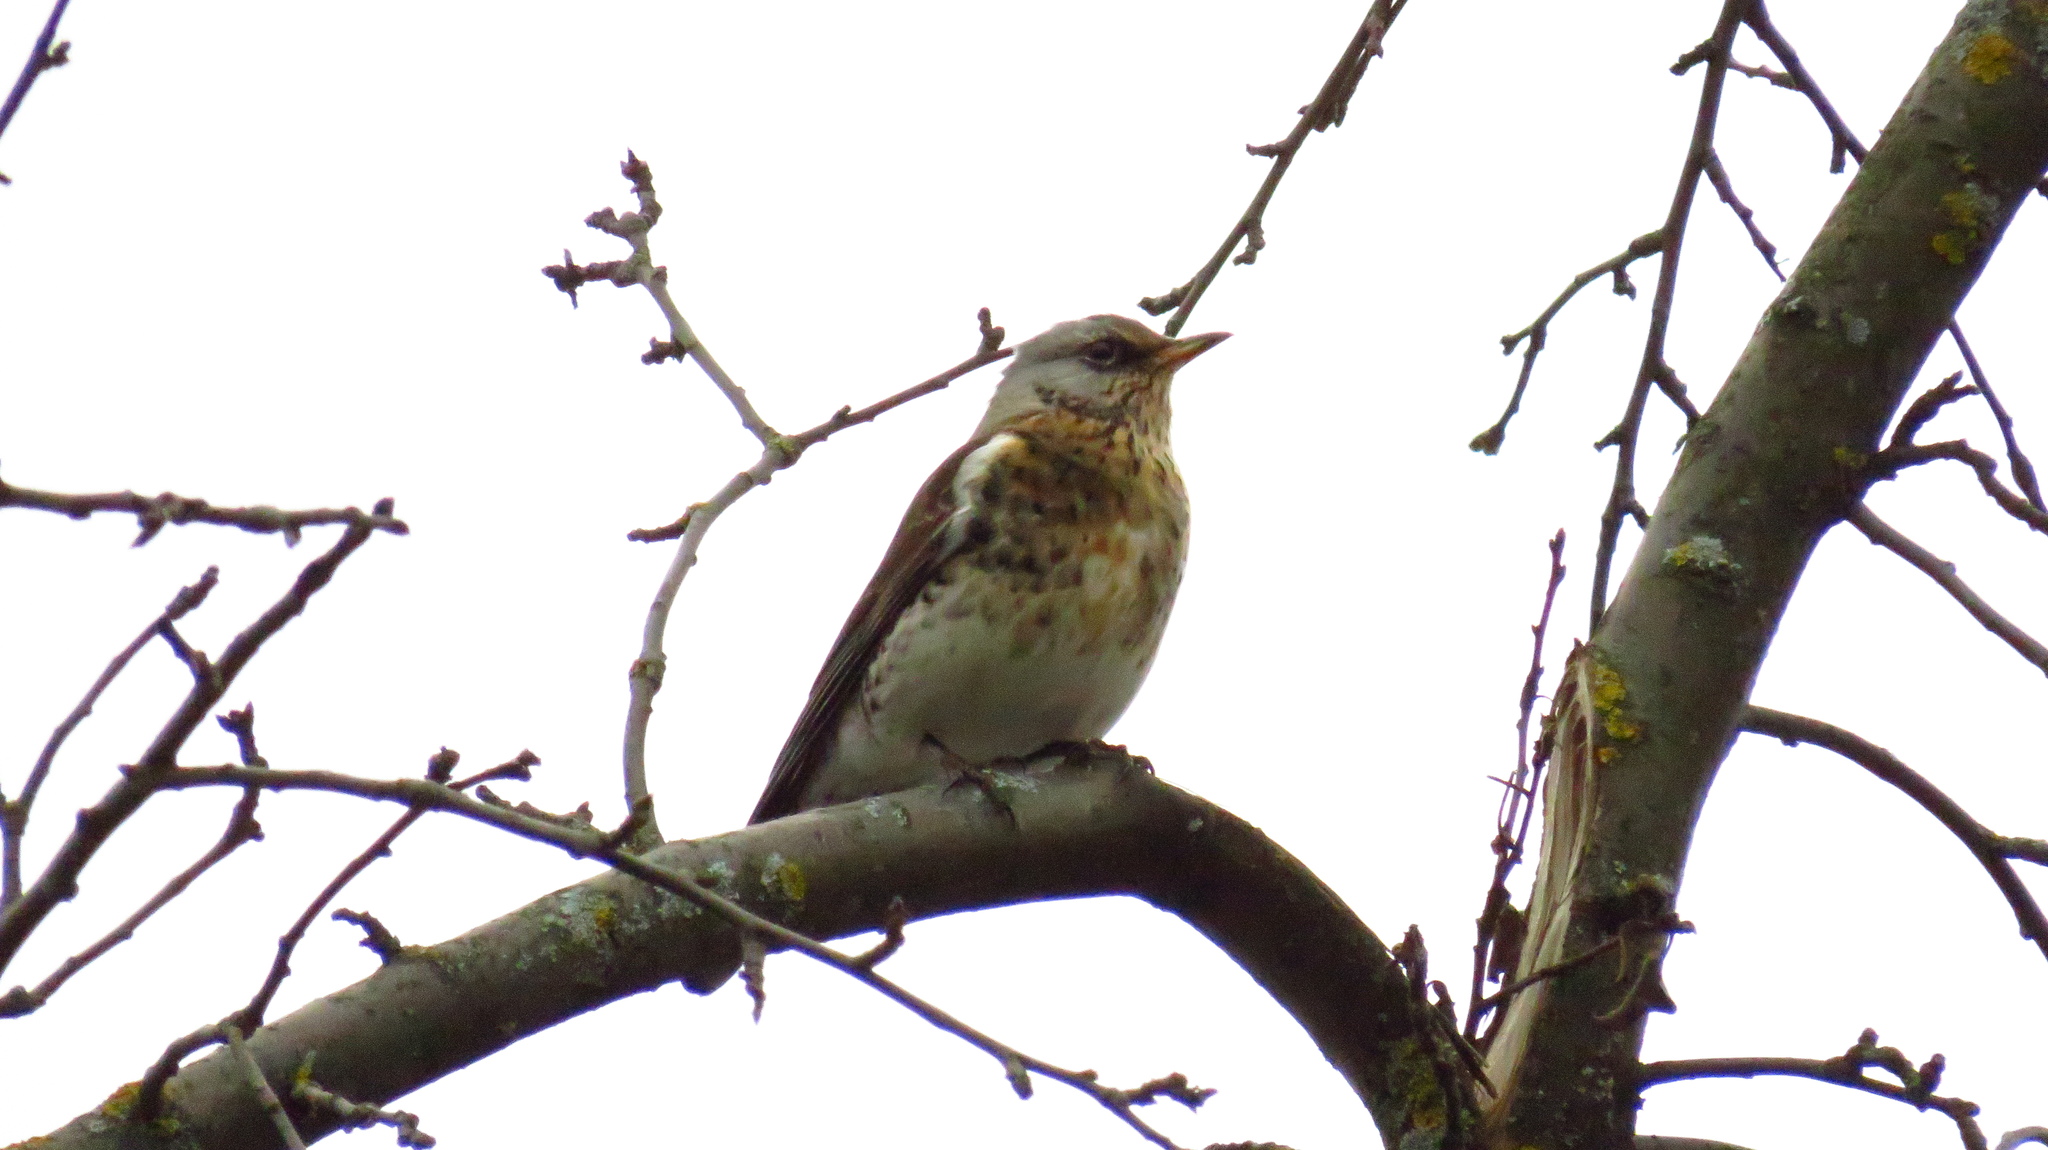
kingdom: Animalia
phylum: Chordata
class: Aves
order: Passeriformes
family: Turdidae
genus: Turdus
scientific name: Turdus pilaris
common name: Fieldfare
